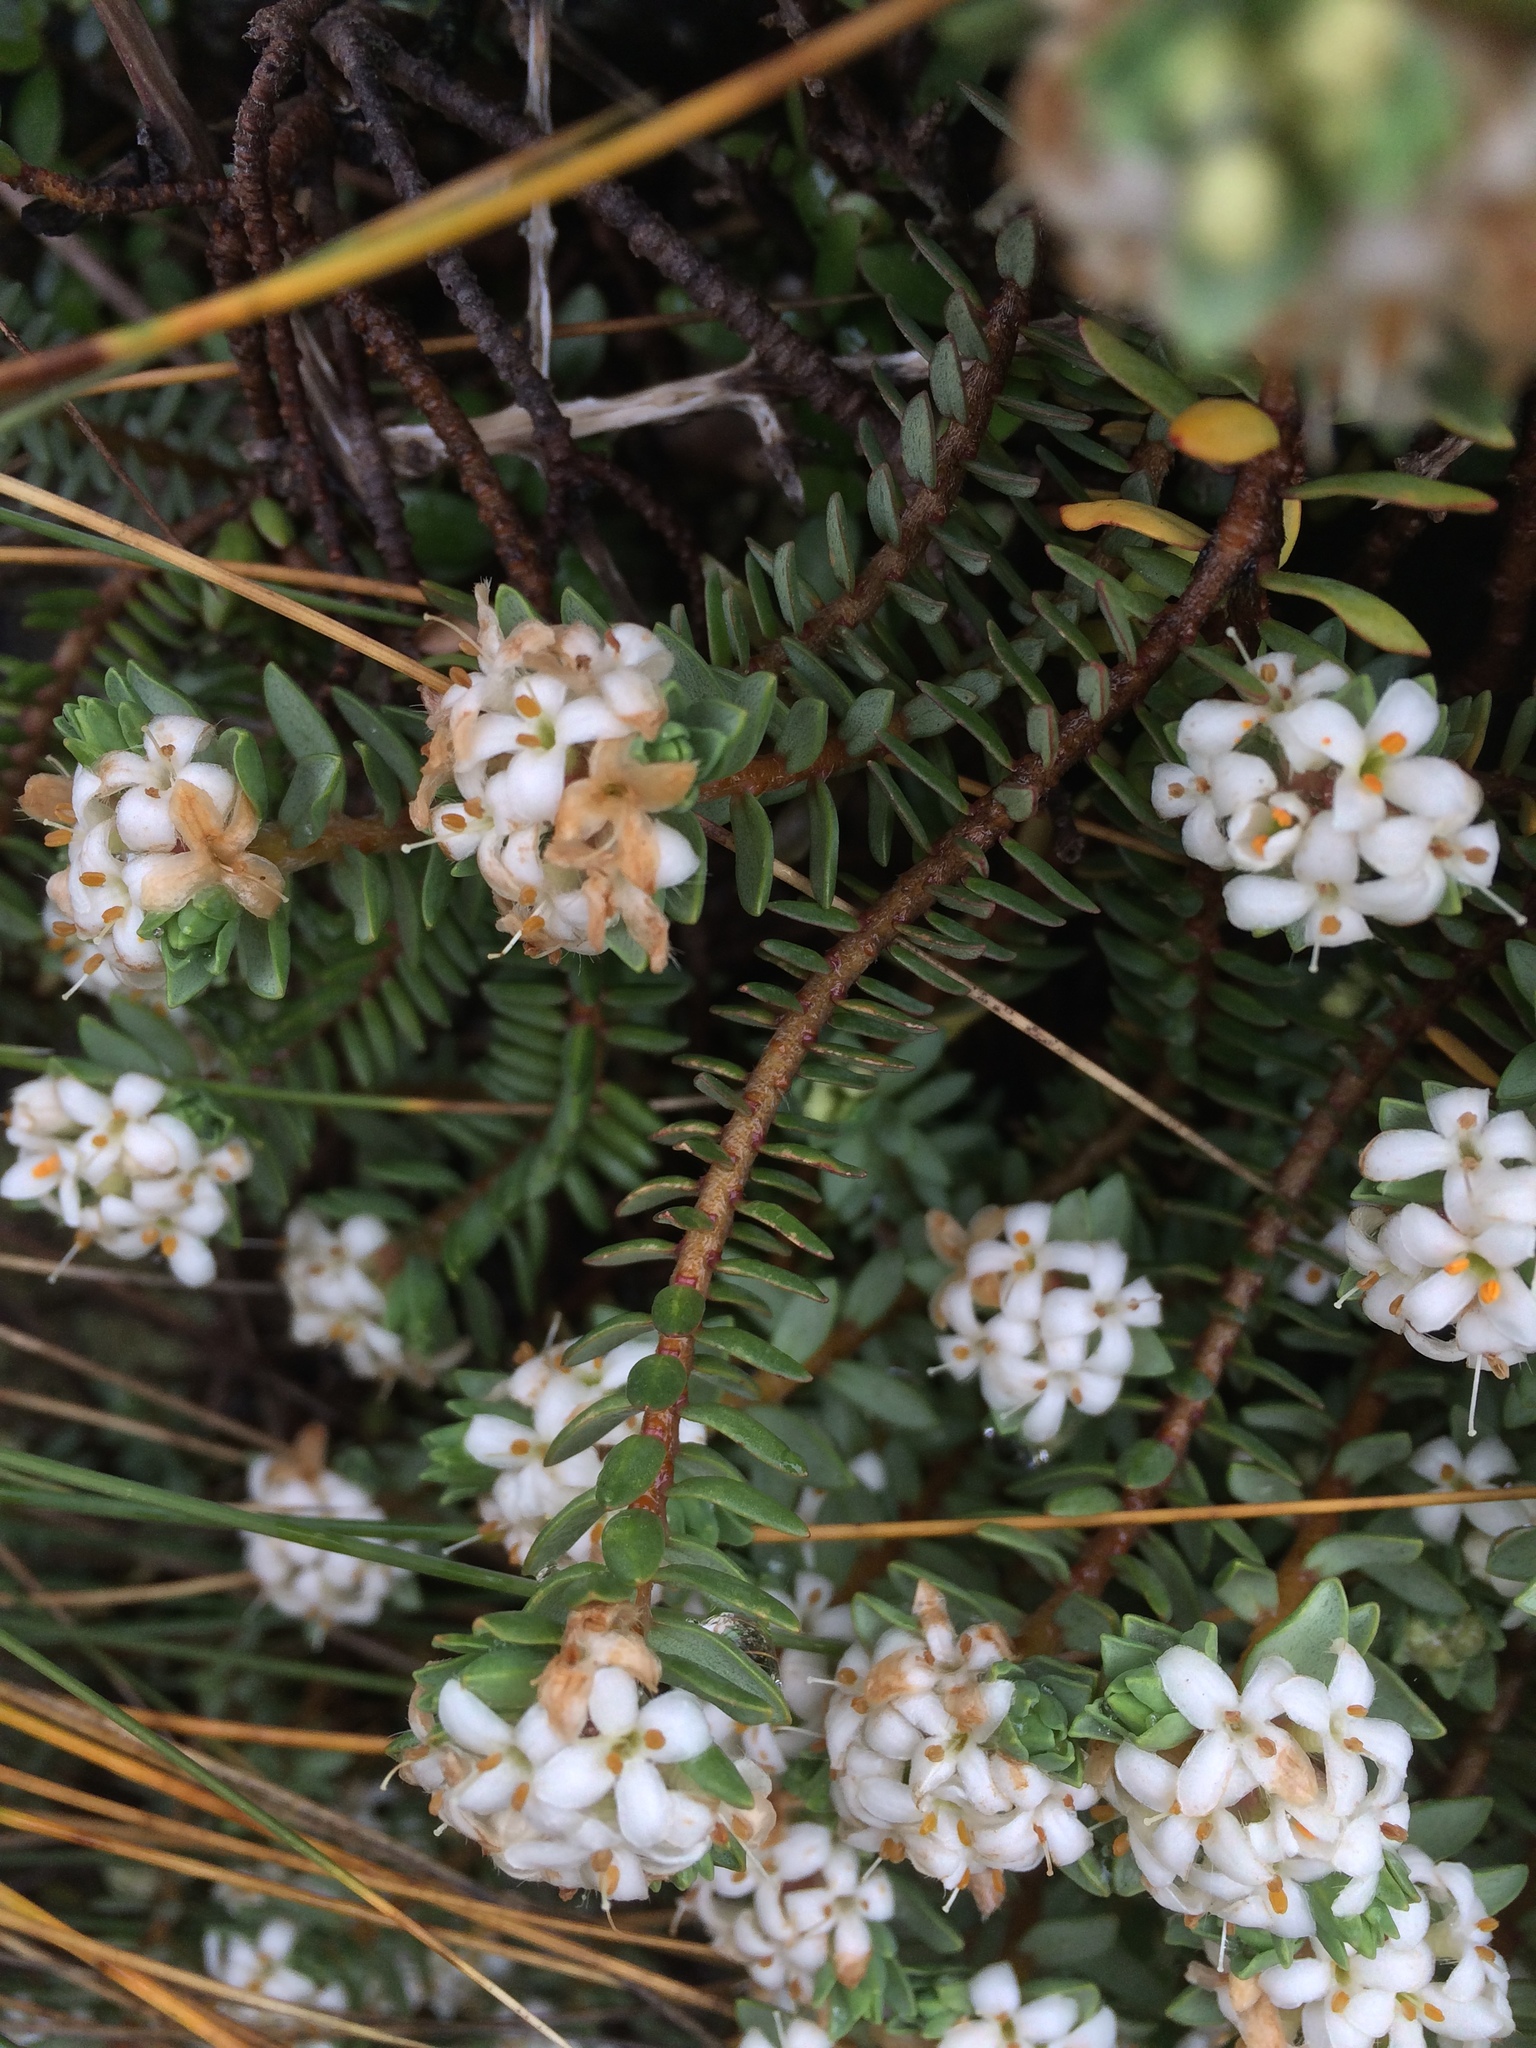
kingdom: Plantae
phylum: Tracheophyta
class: Magnoliopsida
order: Malvales
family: Thymelaeaceae
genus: Pimelea
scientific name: Pimelea prostrata
